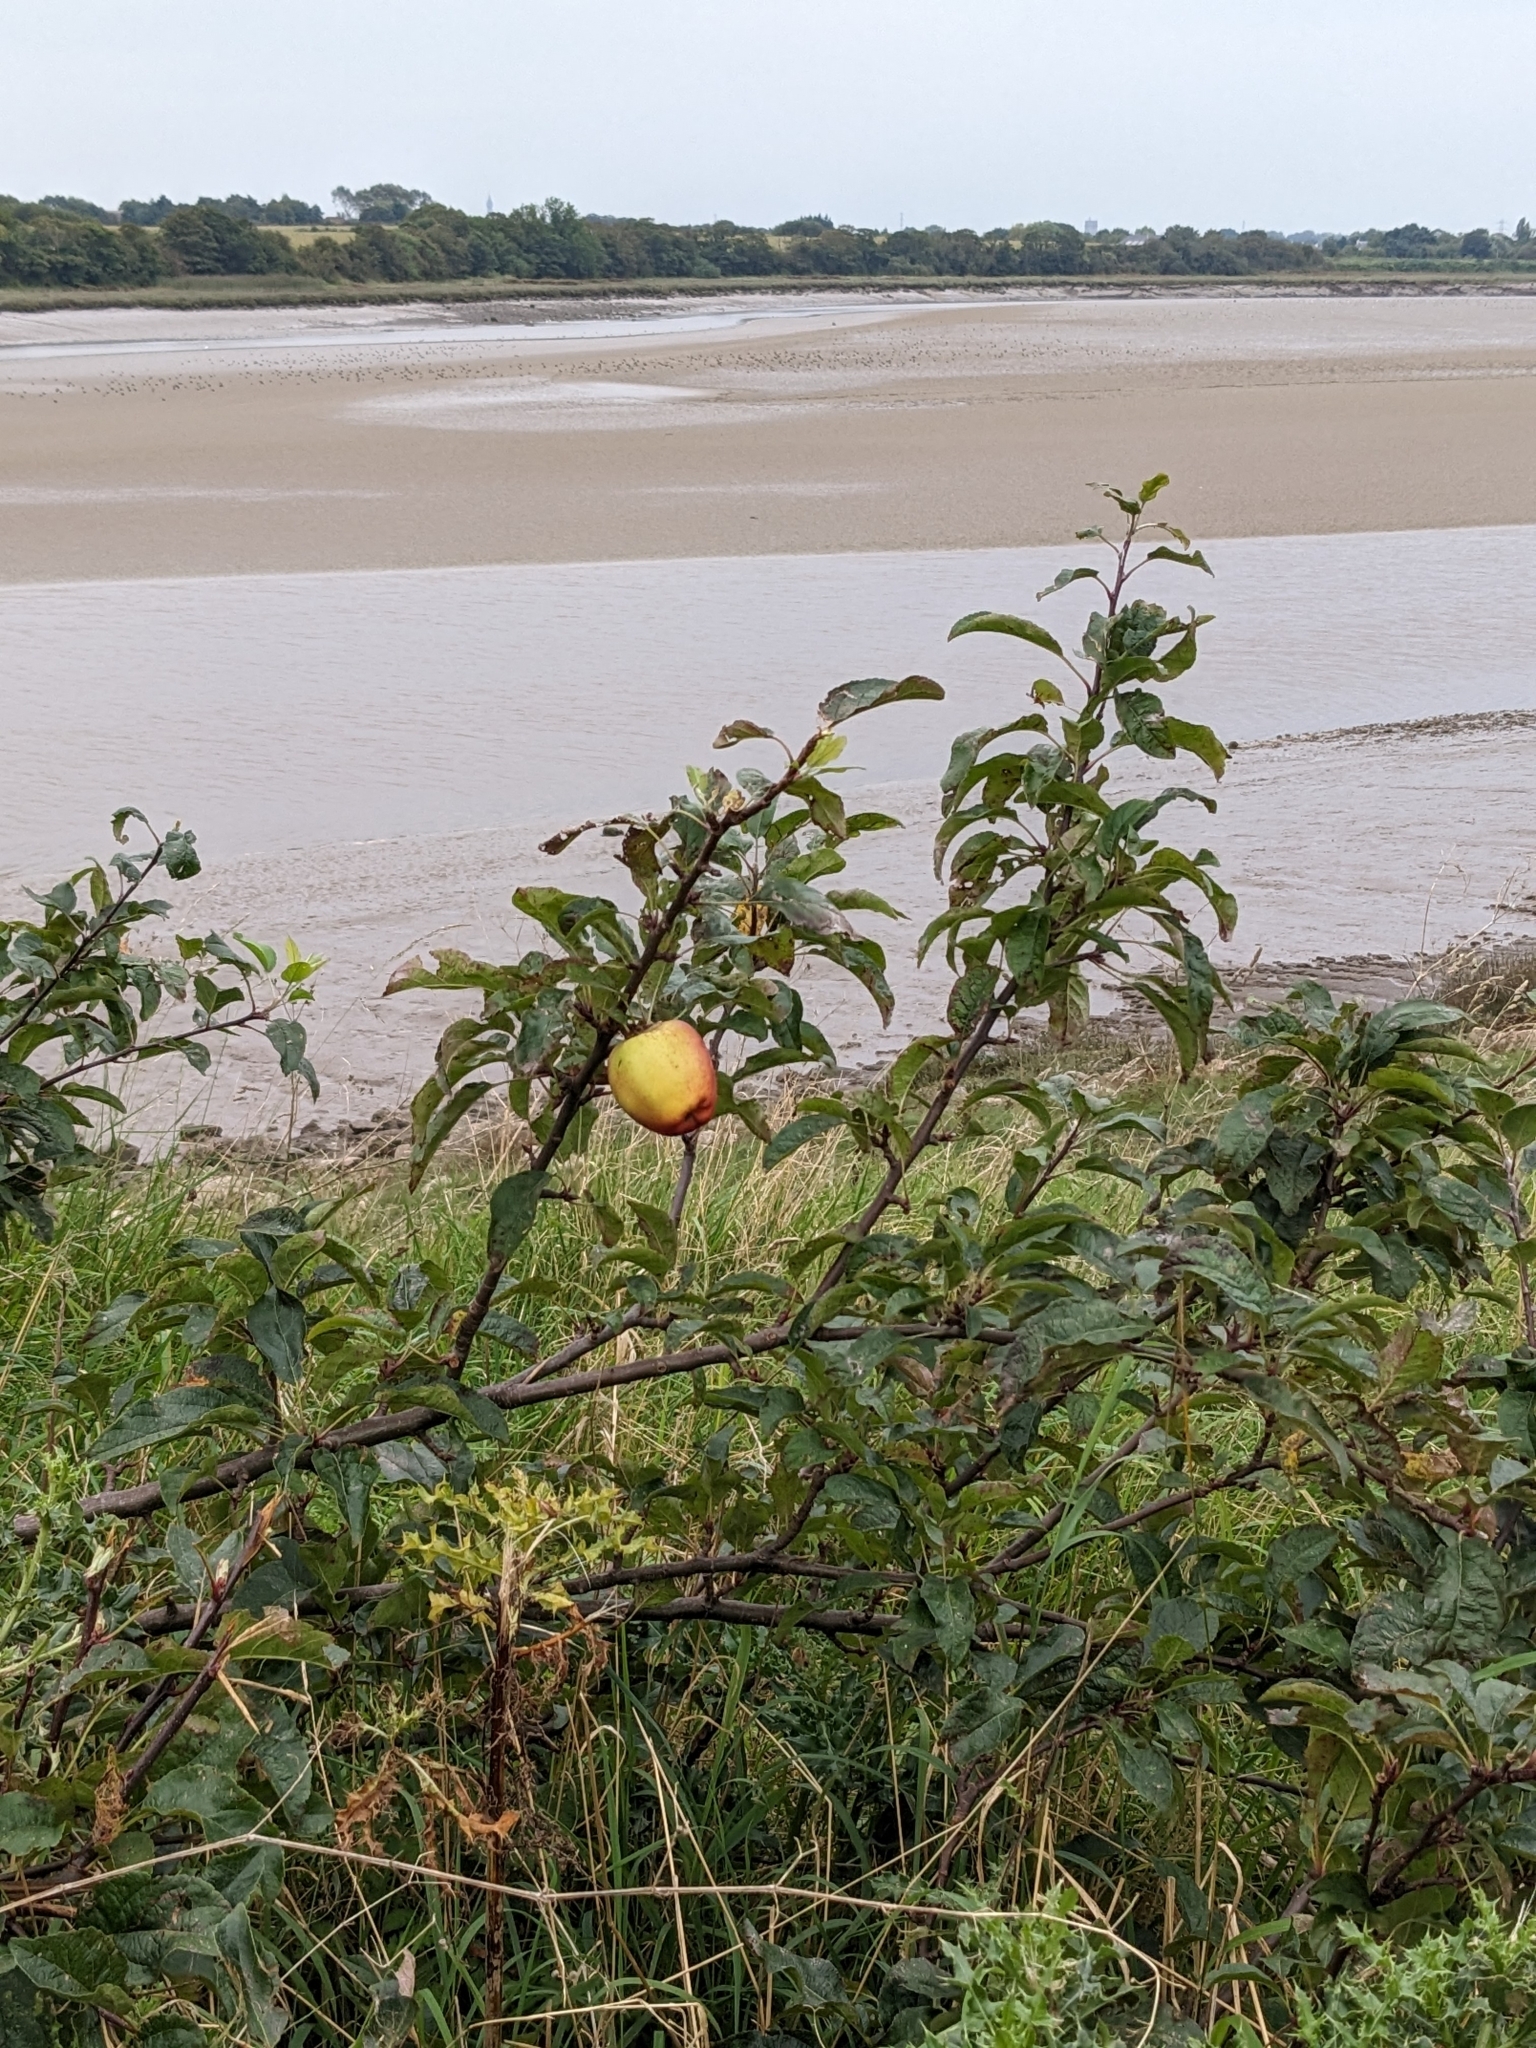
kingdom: Plantae
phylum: Tracheophyta
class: Magnoliopsida
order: Rosales
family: Rosaceae
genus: Malus
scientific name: Malus domestica
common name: Apple
